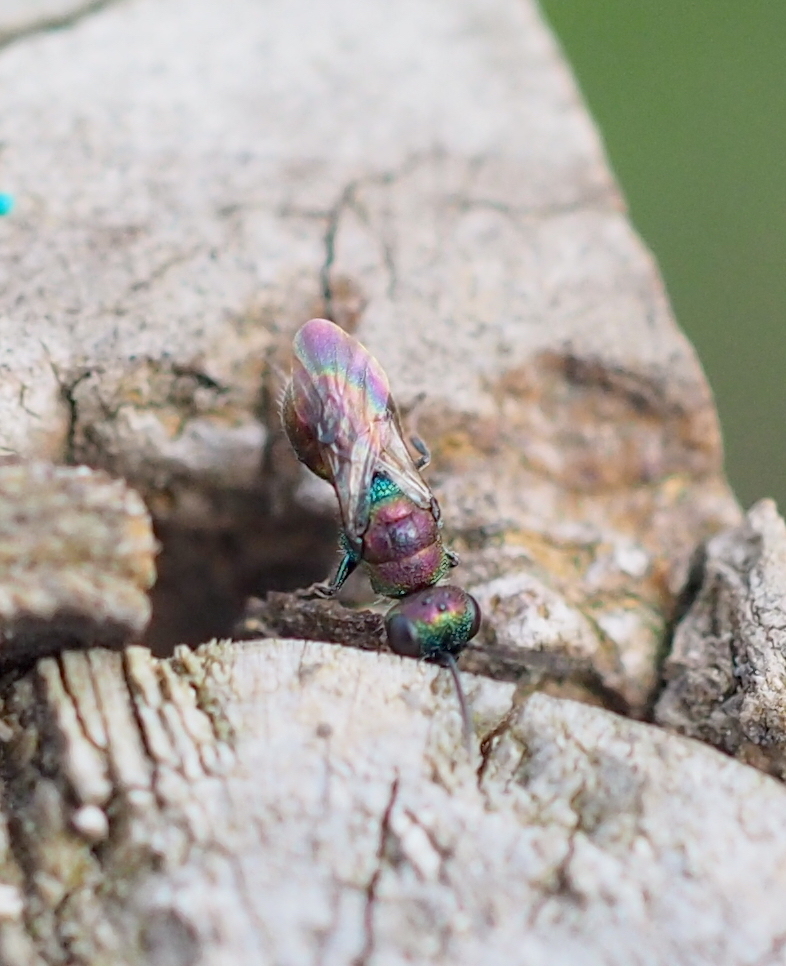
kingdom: Animalia
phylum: Arthropoda
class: Insecta
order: Hymenoptera
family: Chrysididae
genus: Hedychridium
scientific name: Hedychridium
